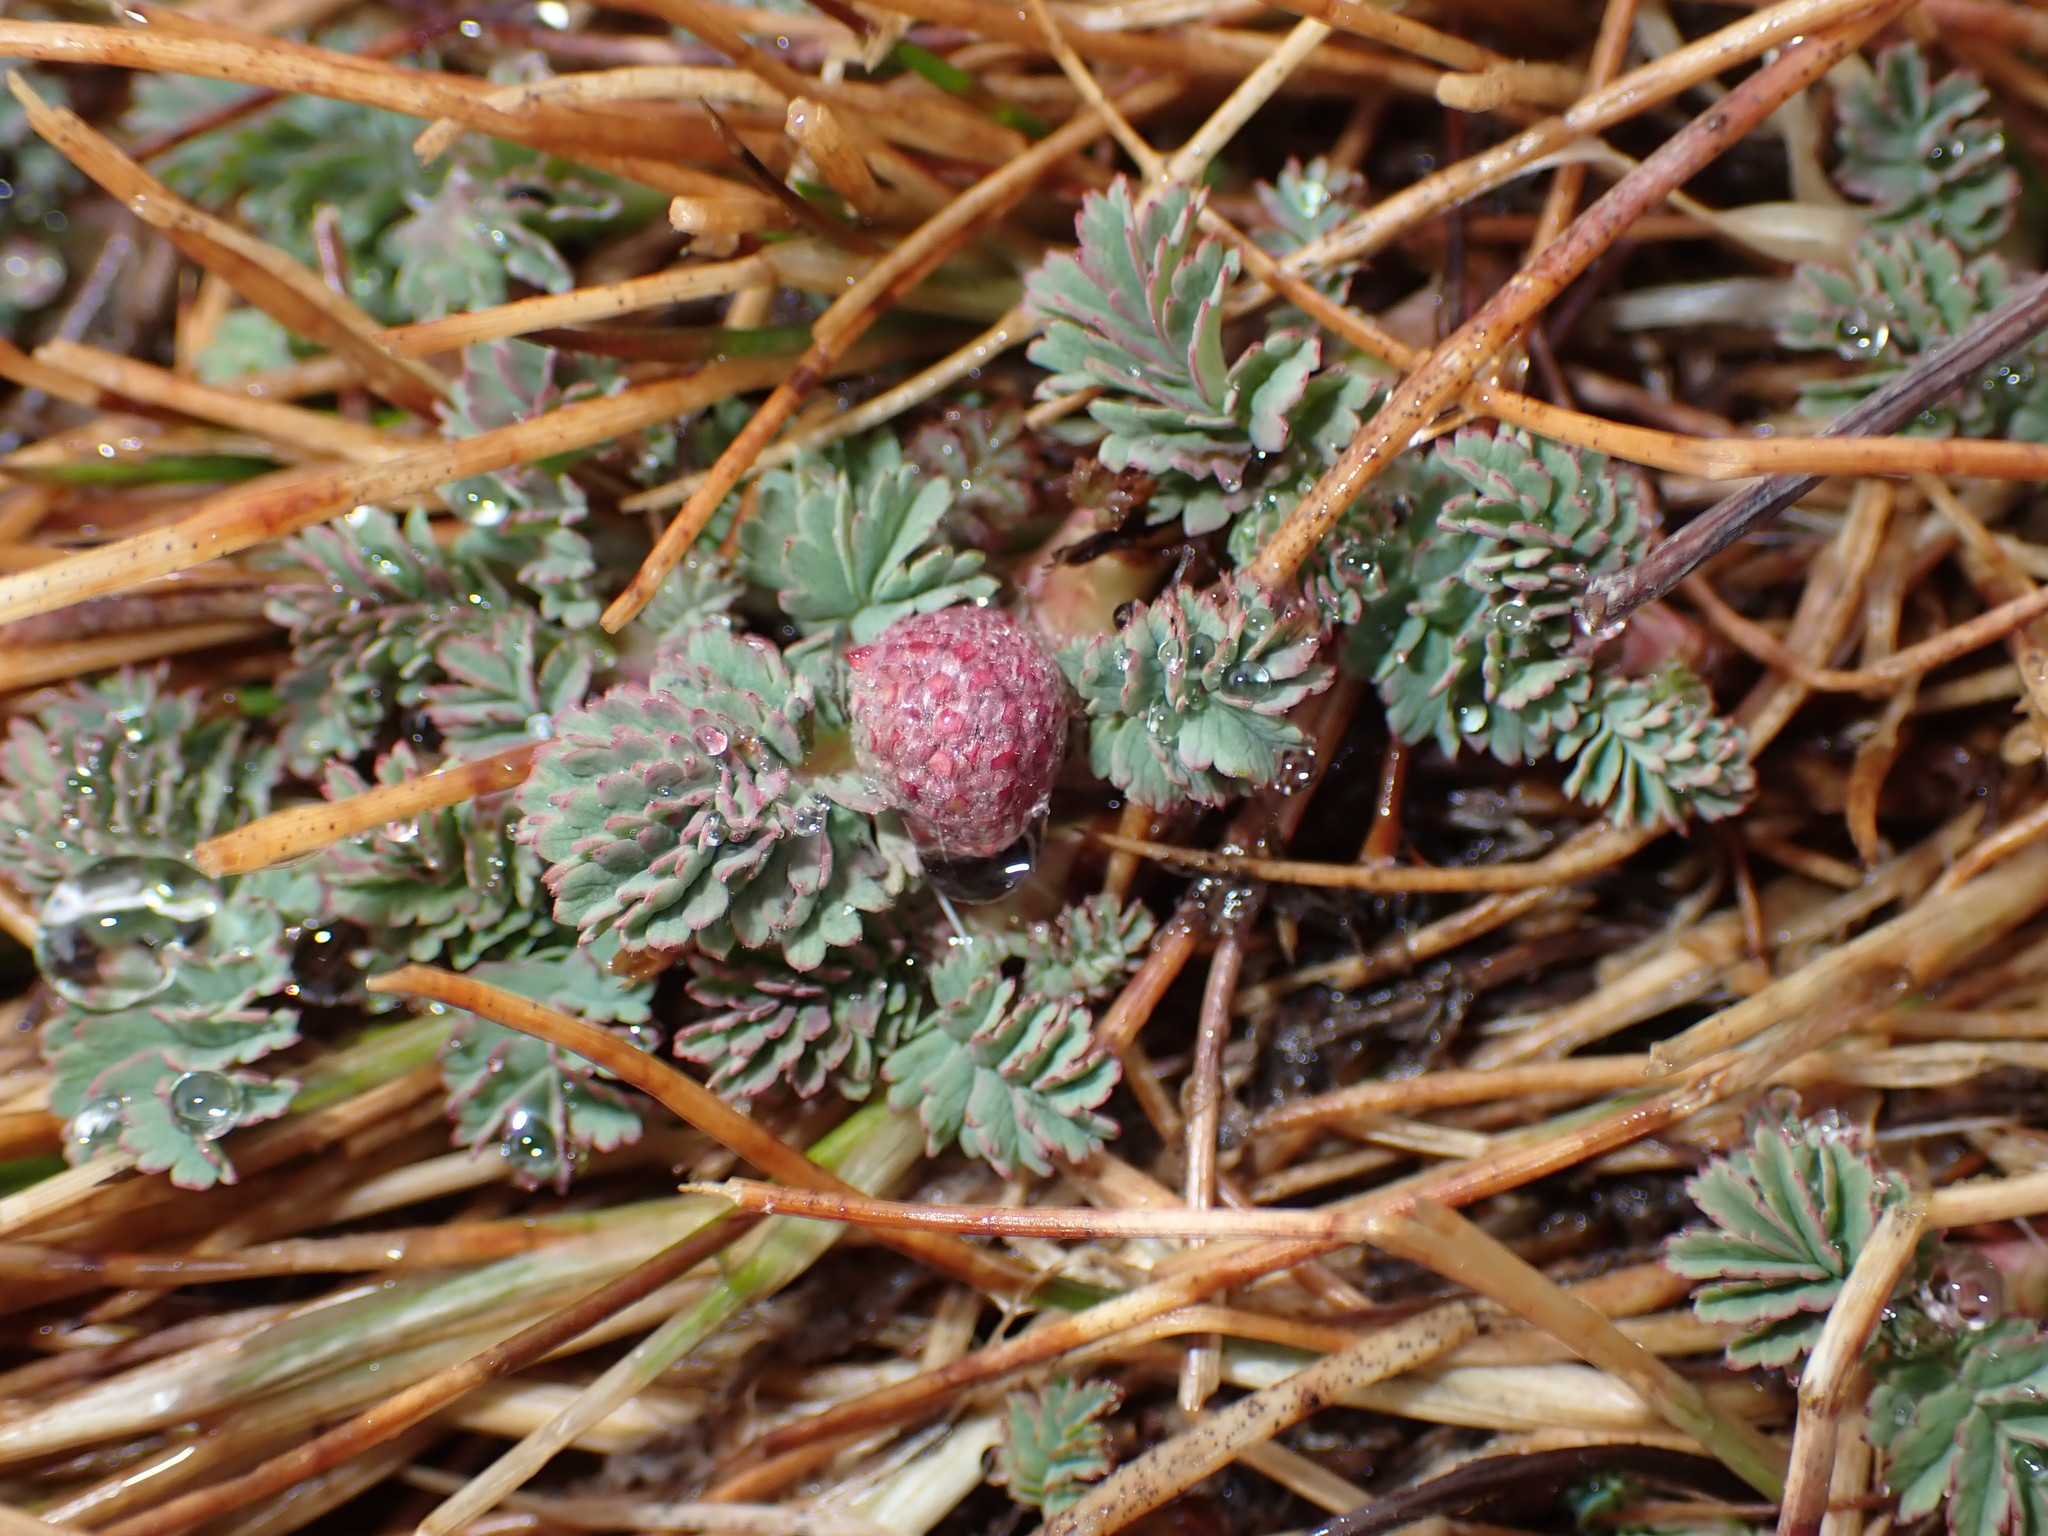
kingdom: Plantae
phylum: Tracheophyta
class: Magnoliopsida
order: Rosales
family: Rosaceae
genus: Acaena
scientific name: Acaena magellanica
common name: New zealand burr
